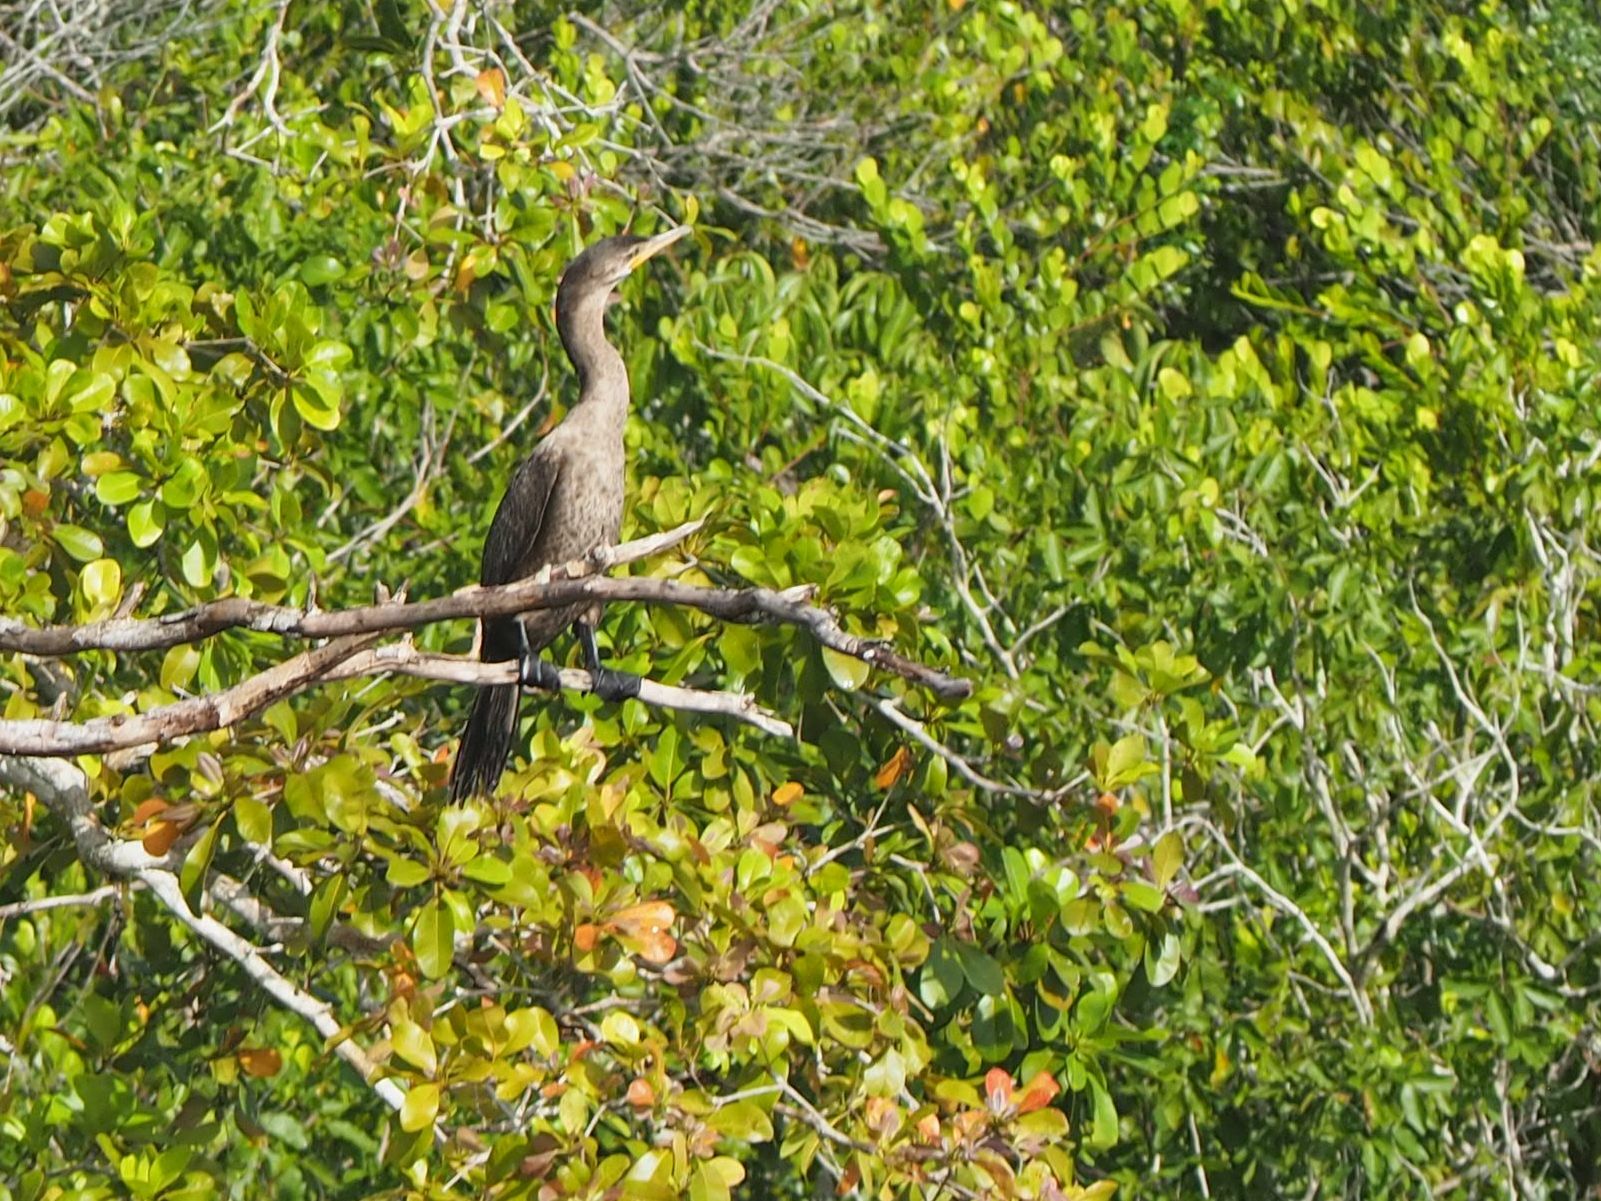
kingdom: Animalia
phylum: Chordata
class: Aves
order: Suliformes
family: Phalacrocoracidae
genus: Phalacrocorax
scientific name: Phalacrocorax brasilianus
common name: Neotropic cormorant
